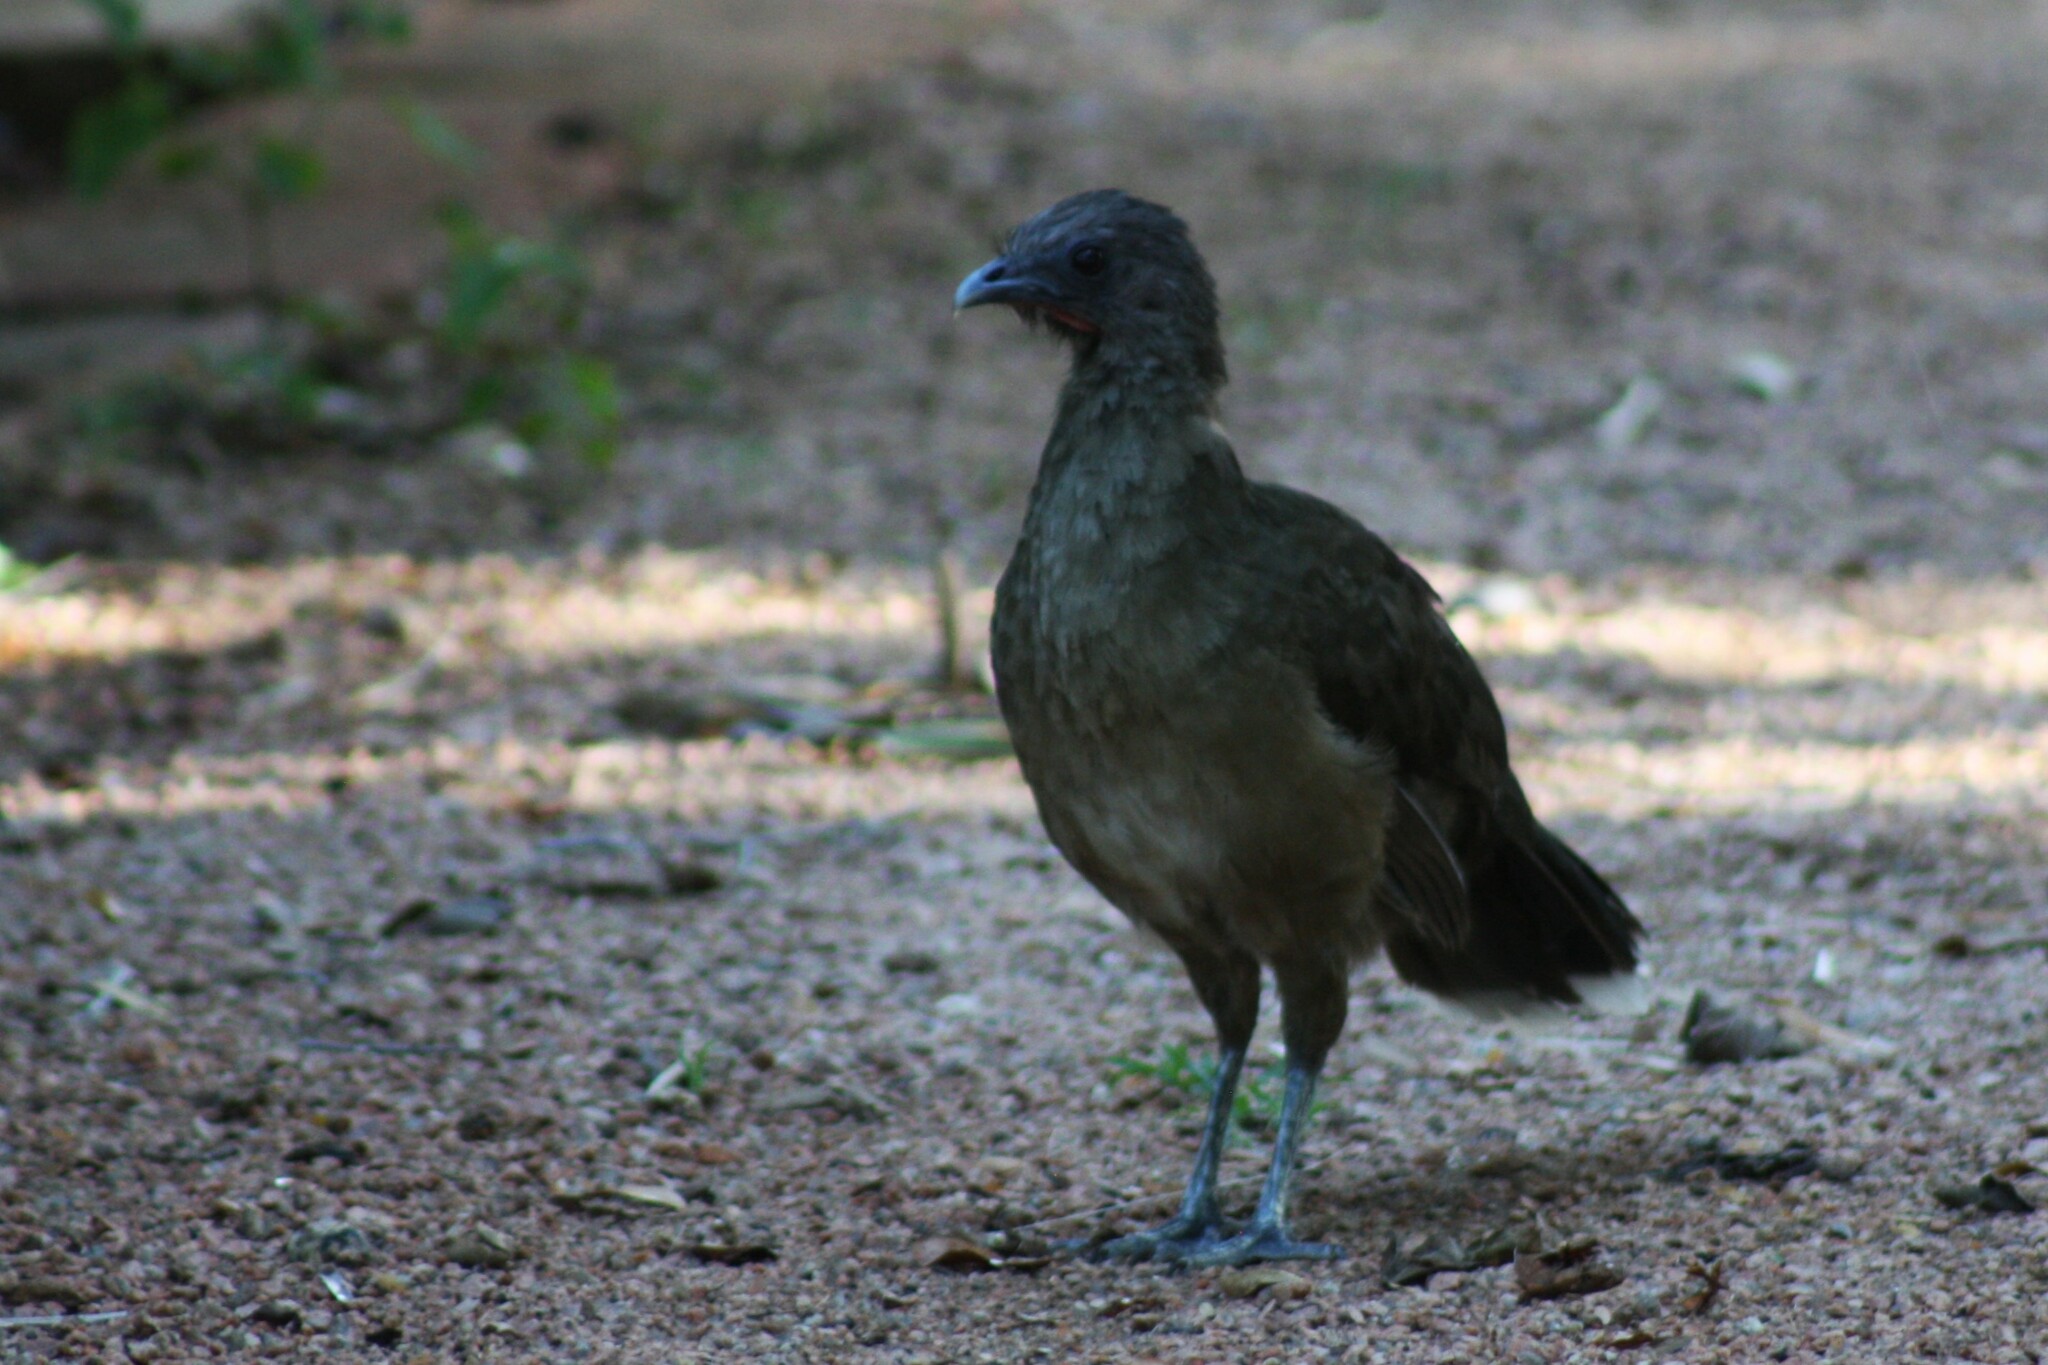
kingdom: Animalia
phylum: Chordata
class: Aves
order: Galliformes
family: Cracidae
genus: Ortalis
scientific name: Ortalis vetula
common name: Plain chachalaca
